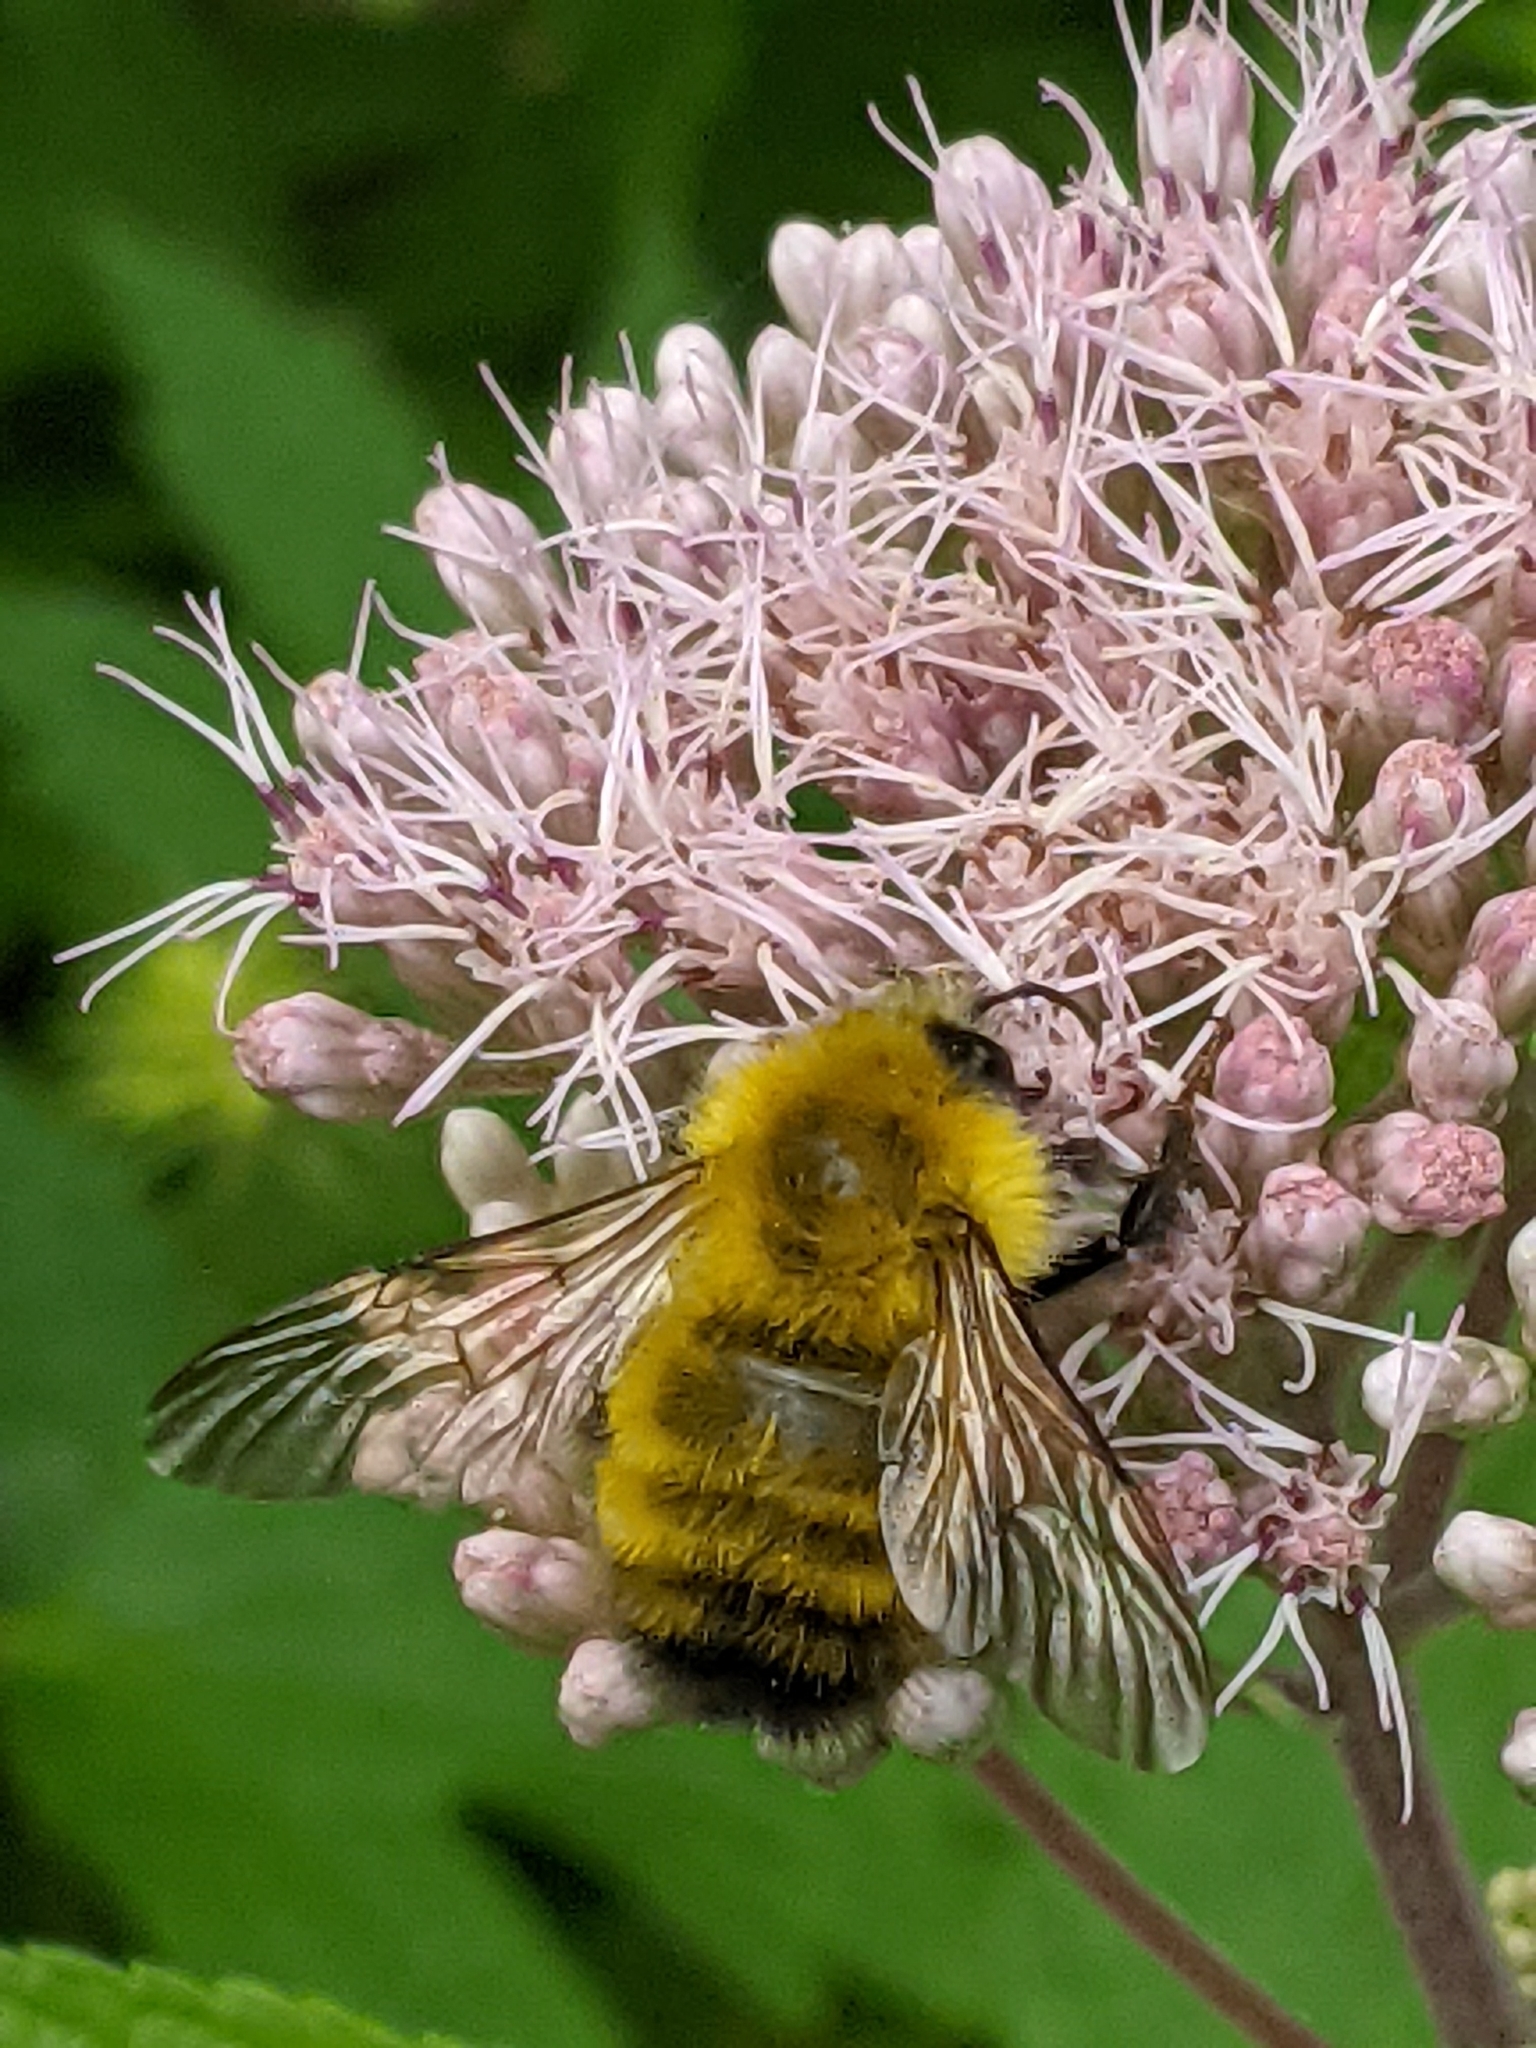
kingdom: Animalia
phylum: Arthropoda
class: Insecta
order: Hymenoptera
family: Apidae
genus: Bombus
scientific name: Bombus perplexus
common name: Confusing bumble bee
